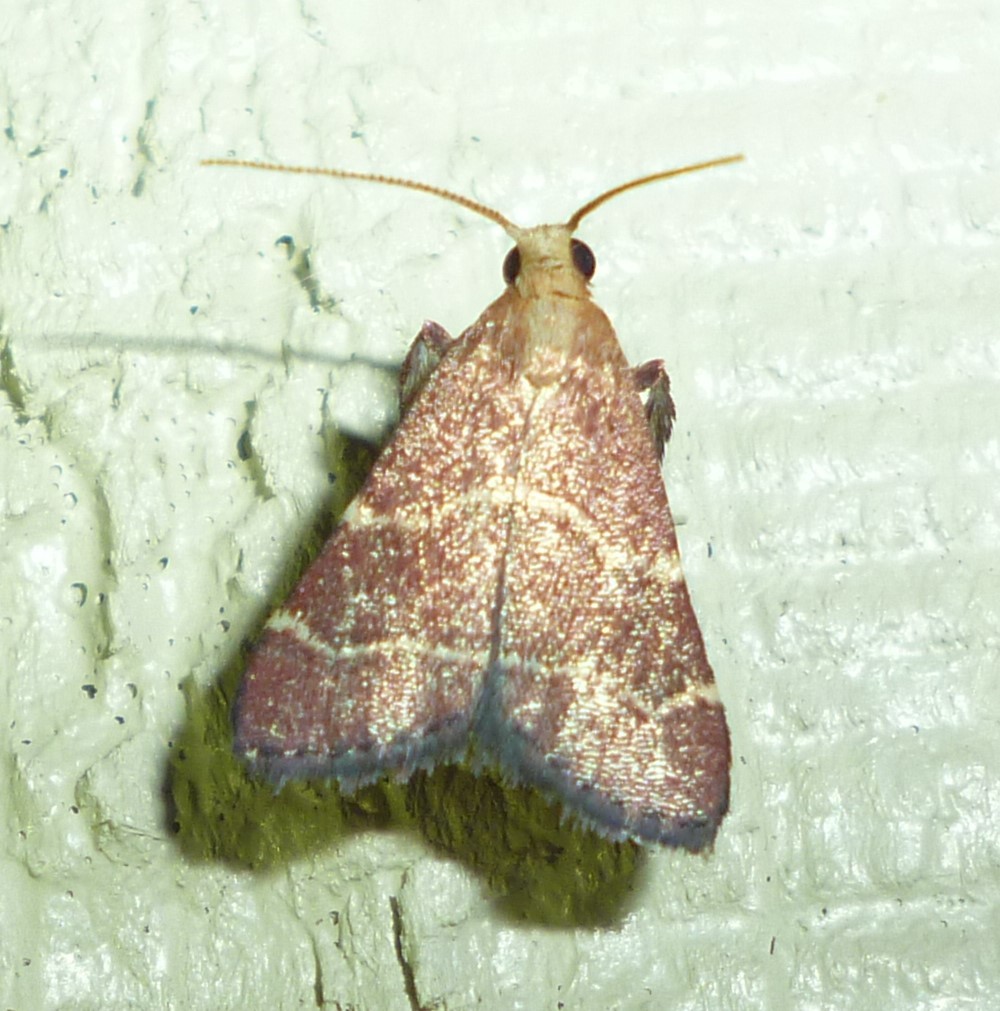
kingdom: Animalia
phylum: Arthropoda
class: Insecta
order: Lepidoptera
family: Pyralidae
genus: Arta
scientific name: Arta statalis
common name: Posturing arta moth
